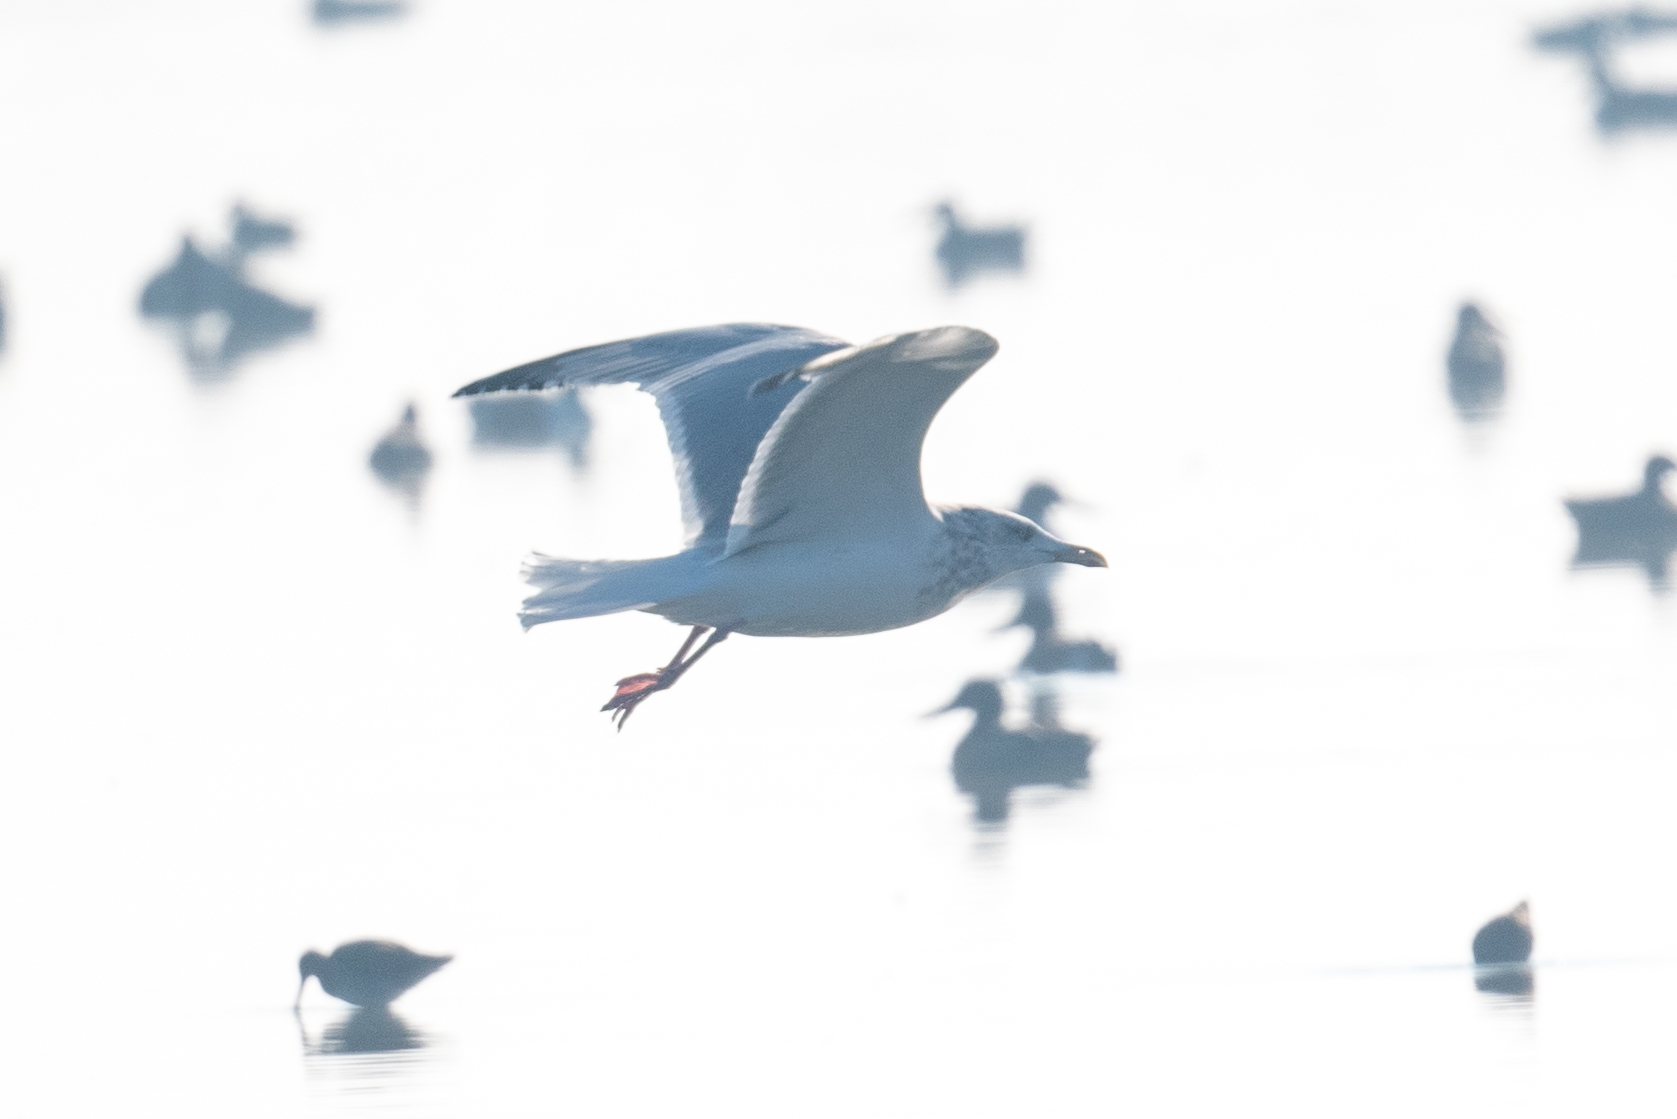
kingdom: Animalia
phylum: Chordata
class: Aves
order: Charadriiformes
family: Laridae
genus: Larus
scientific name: Larus argentatus
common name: Herring gull
